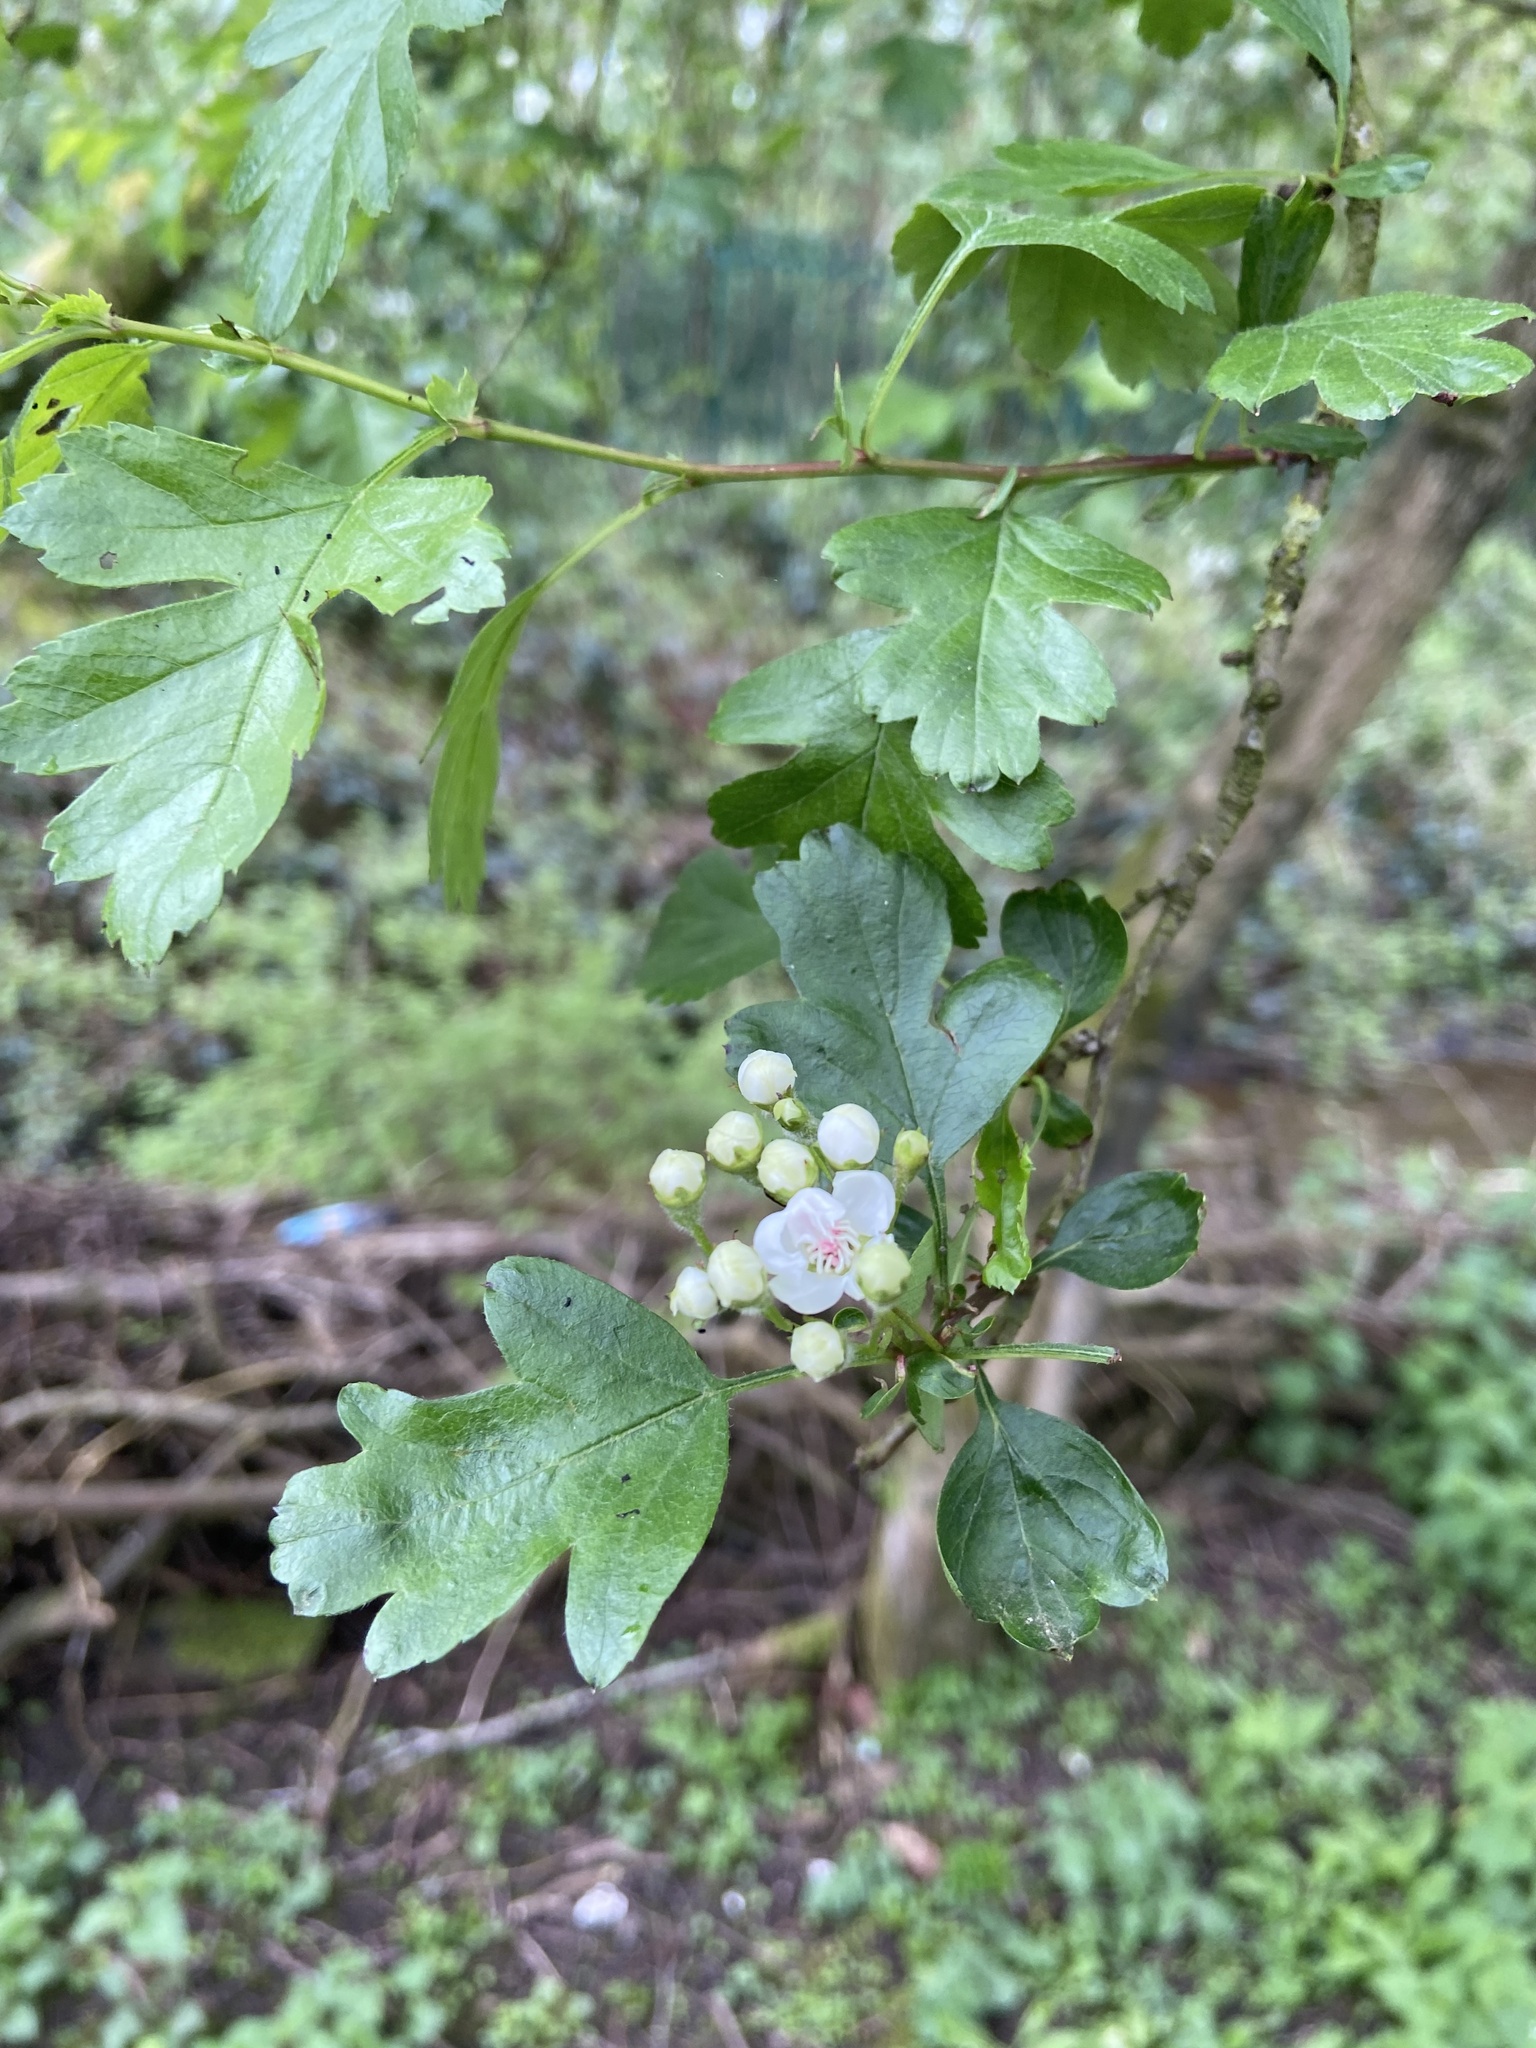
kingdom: Plantae
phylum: Tracheophyta
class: Magnoliopsida
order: Rosales
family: Rosaceae
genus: Crataegus
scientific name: Crataegus monogyna
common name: Hawthorn
